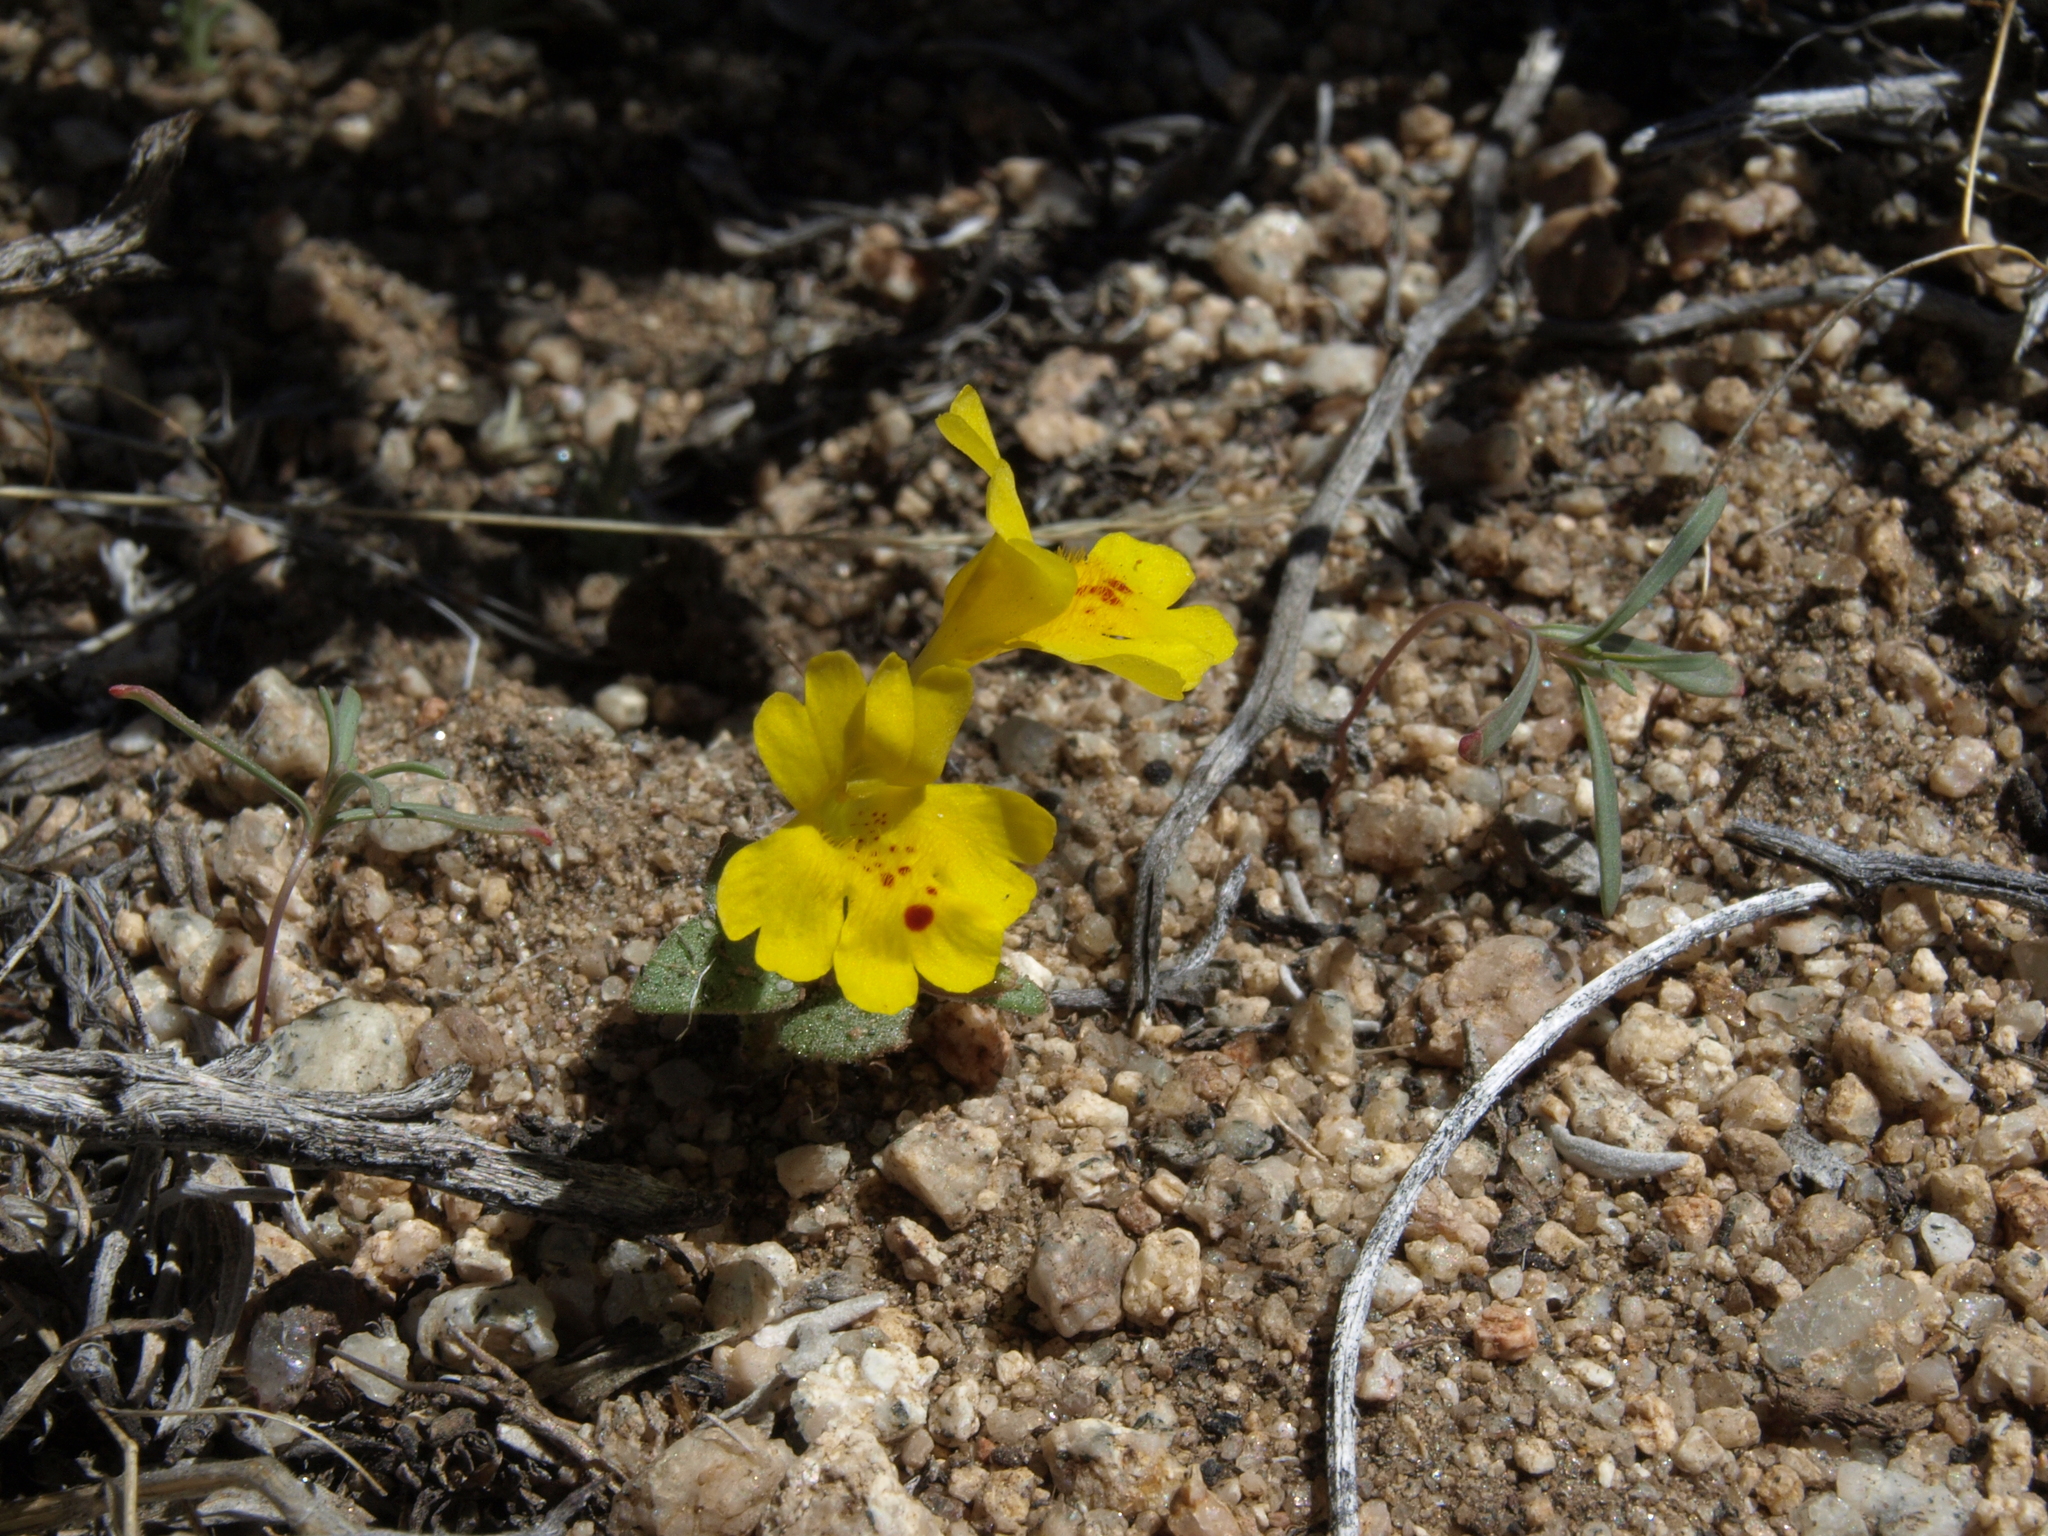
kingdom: Plantae
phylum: Tracheophyta
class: Magnoliopsida
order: Lamiales
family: Phrymaceae
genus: Erythranthe
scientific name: Erythranthe carsonensis
